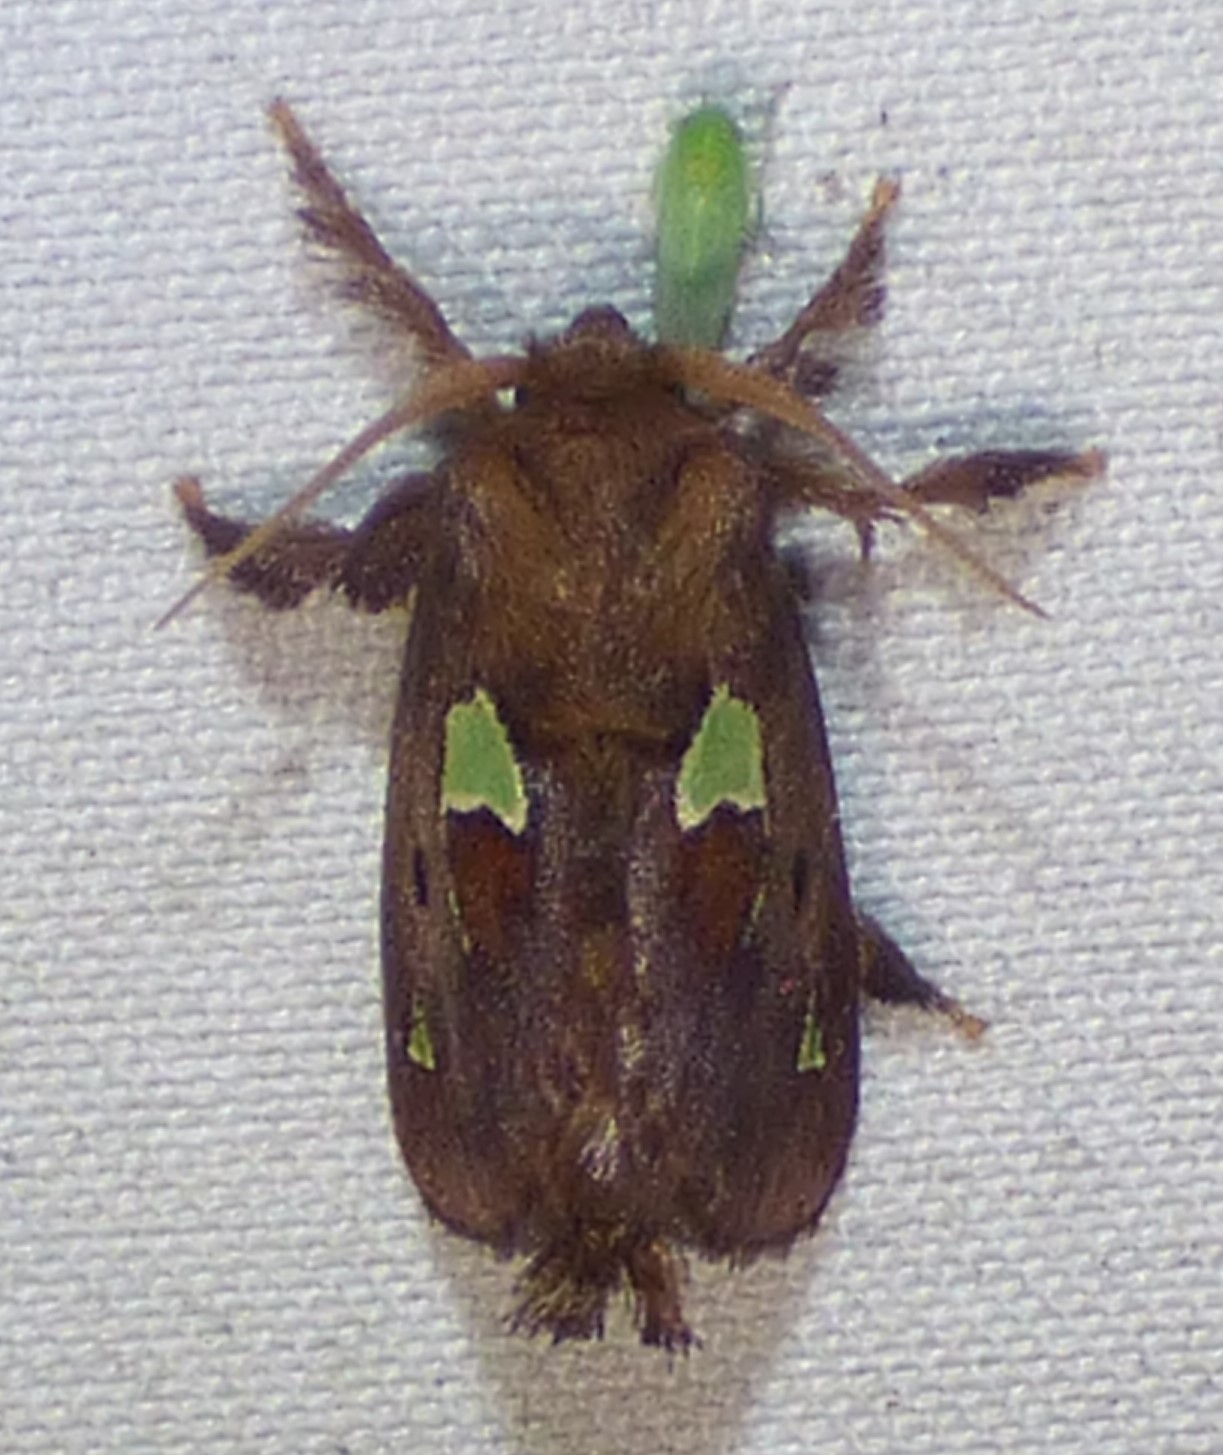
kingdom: Animalia
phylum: Arthropoda
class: Insecta
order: Lepidoptera
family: Limacodidae
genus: Euclea
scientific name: Euclea delphinii
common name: Spiny oak-slug moth
